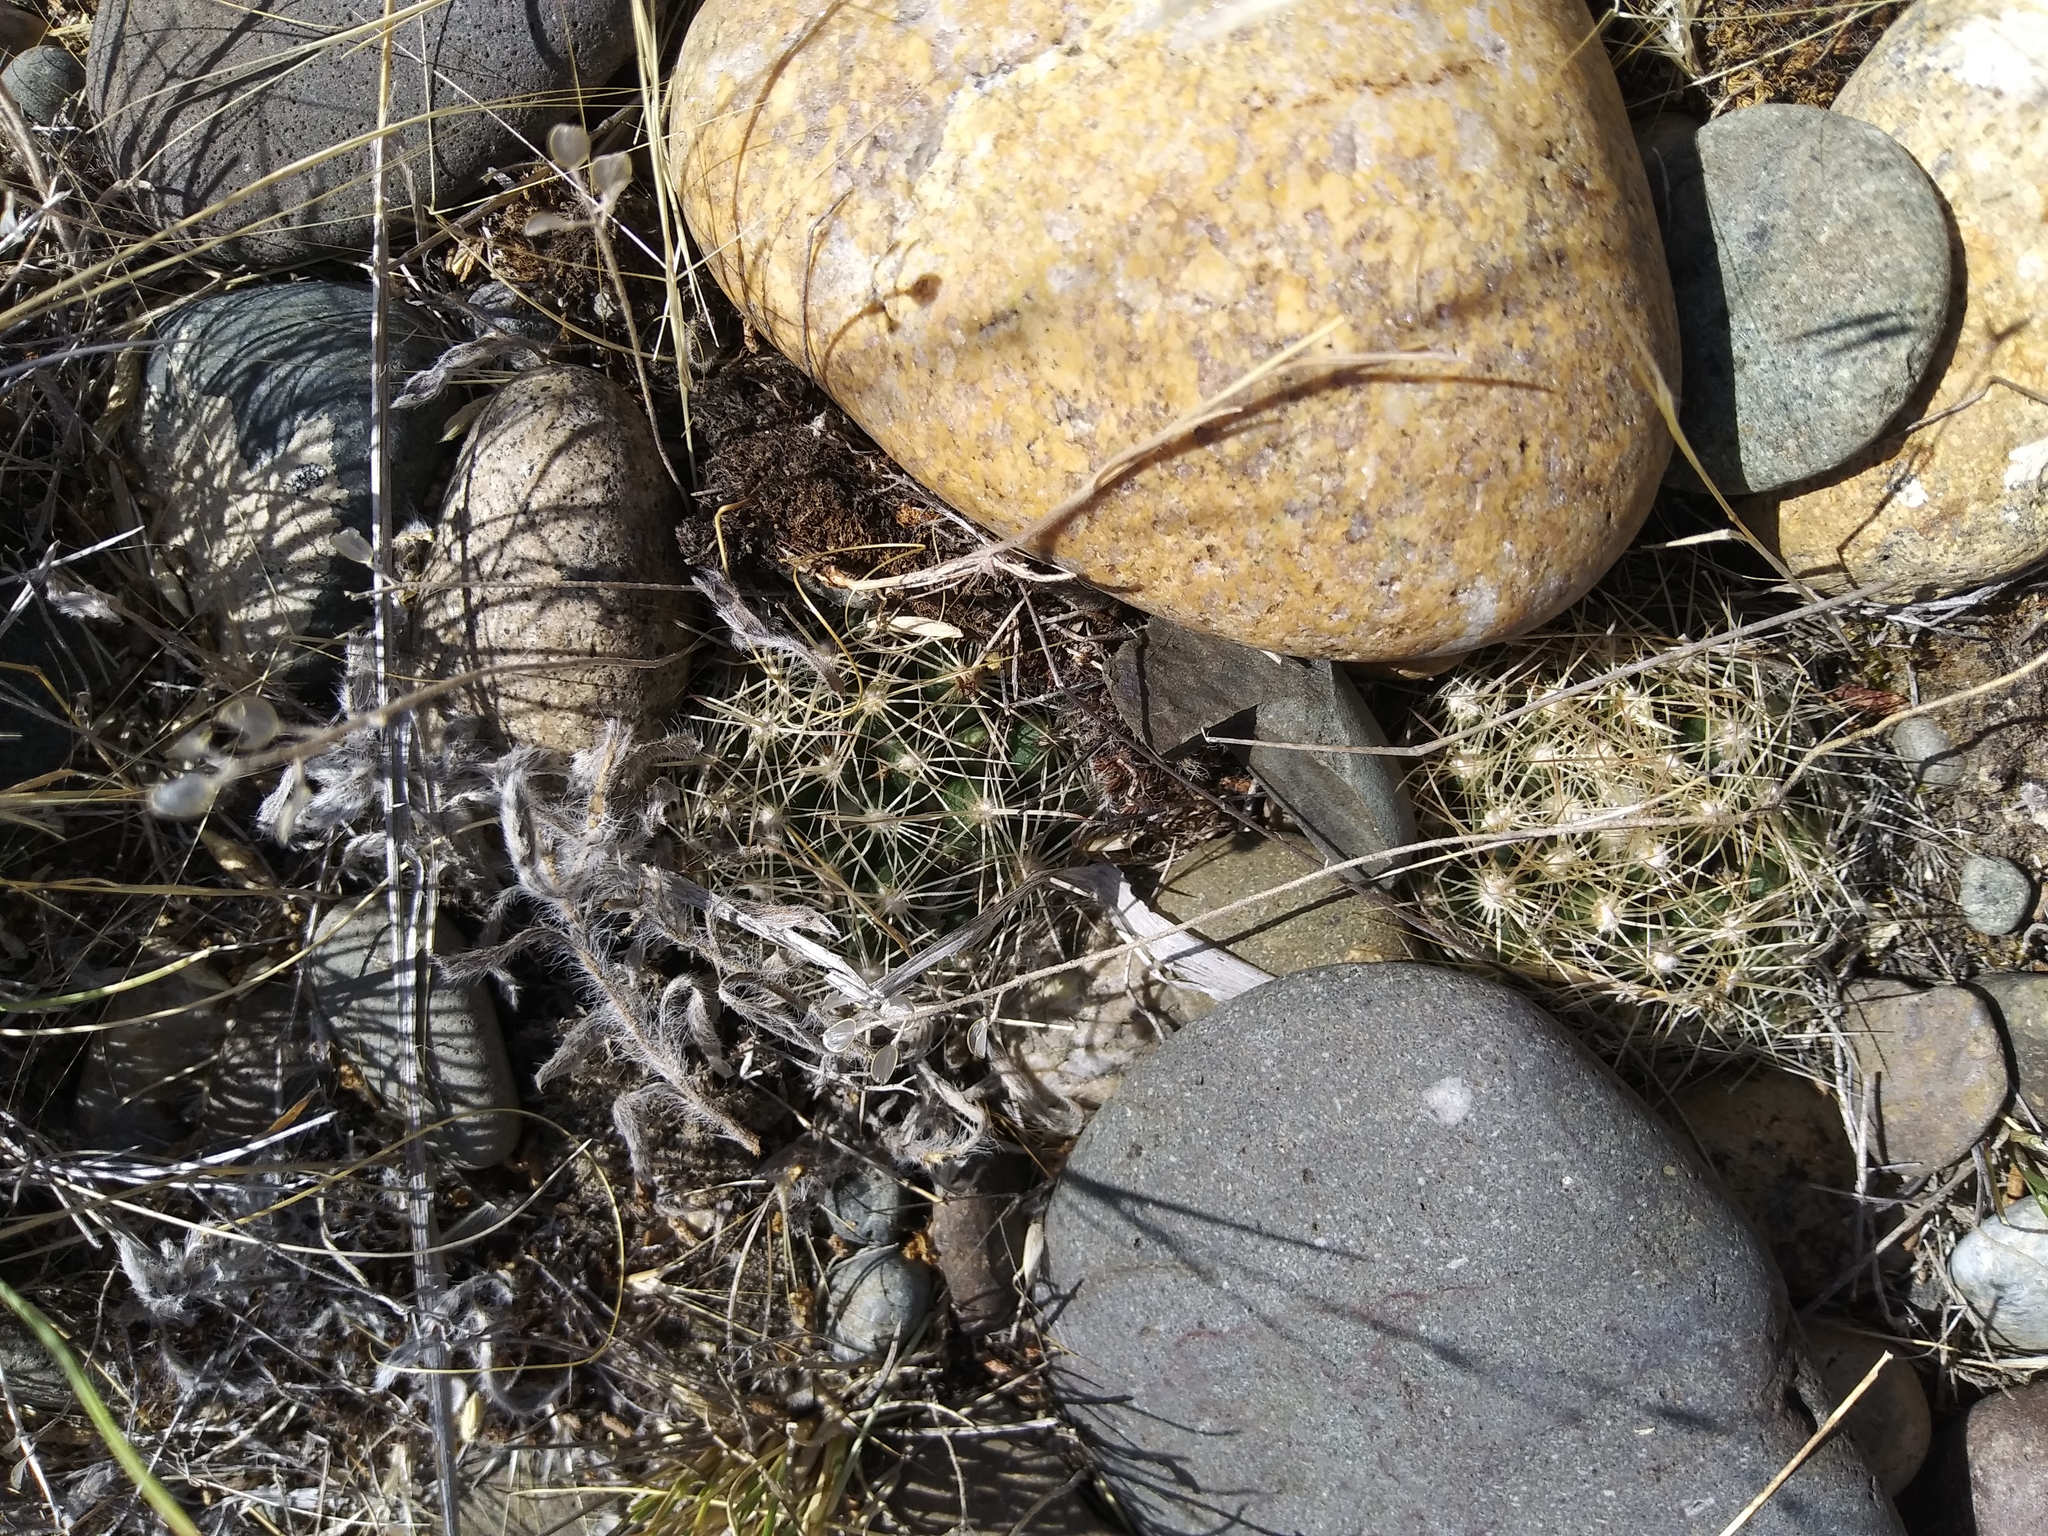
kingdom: Plantae
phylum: Tracheophyta
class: Magnoliopsida
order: Caryophyllales
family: Cactaceae
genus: Pelecyphora
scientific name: Pelecyphora missouriensis
